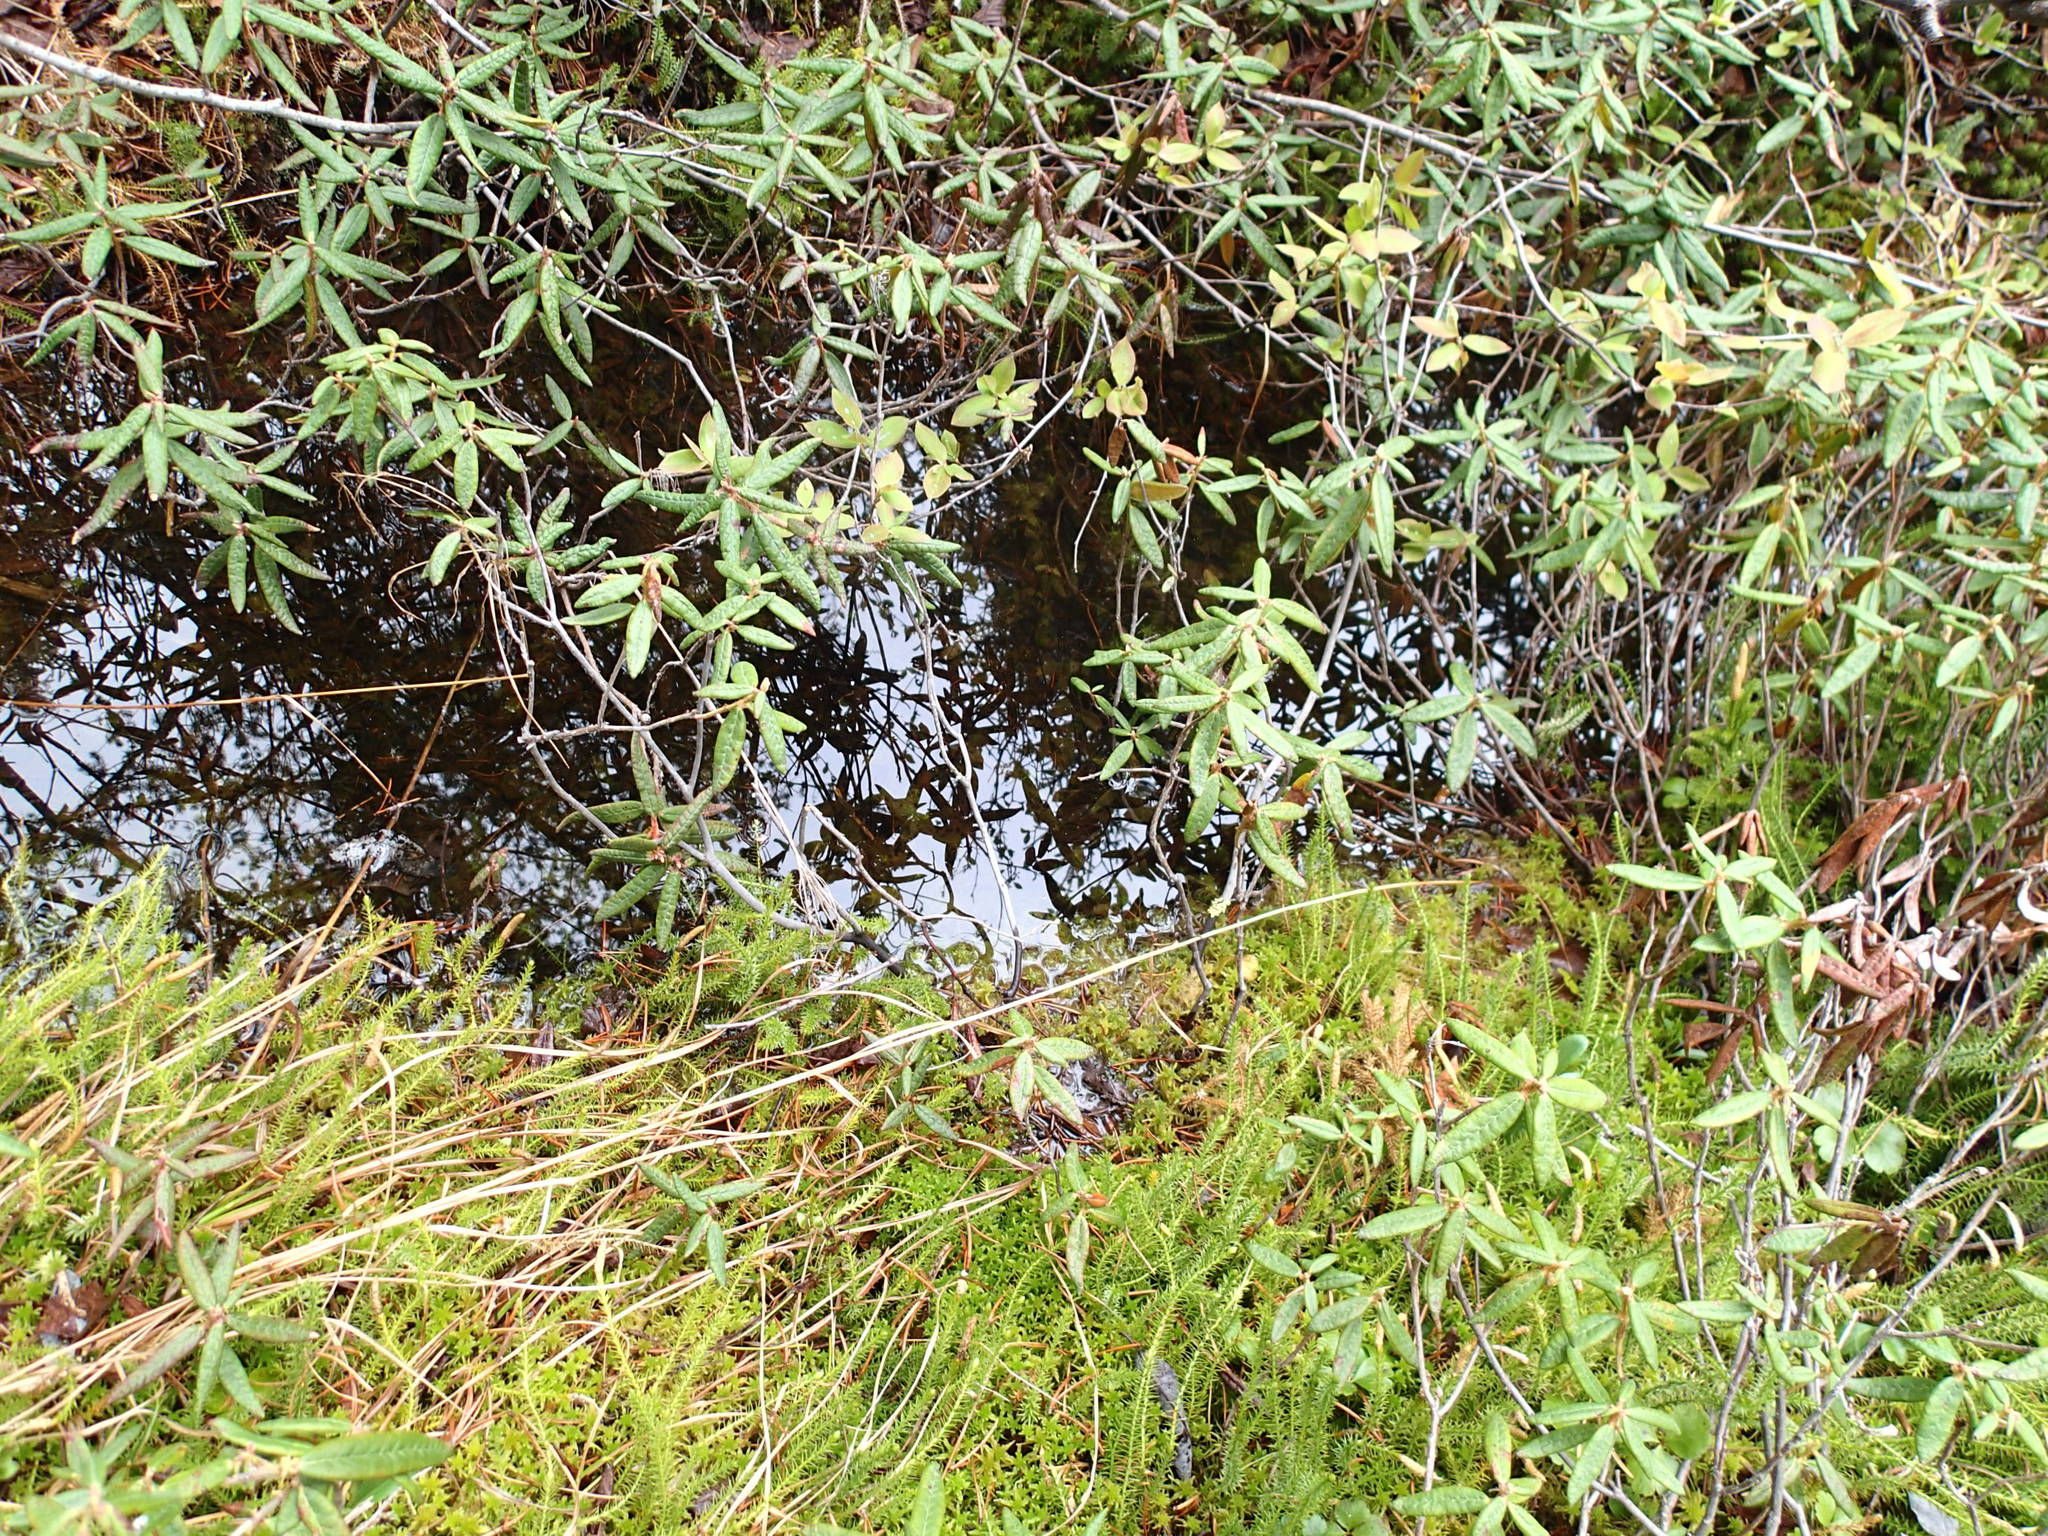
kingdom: Plantae
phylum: Tracheophyta
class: Magnoliopsida
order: Ericales
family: Ericaceae
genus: Rhododendron
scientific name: Rhododendron groenlandicum
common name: Bog labrador tea
